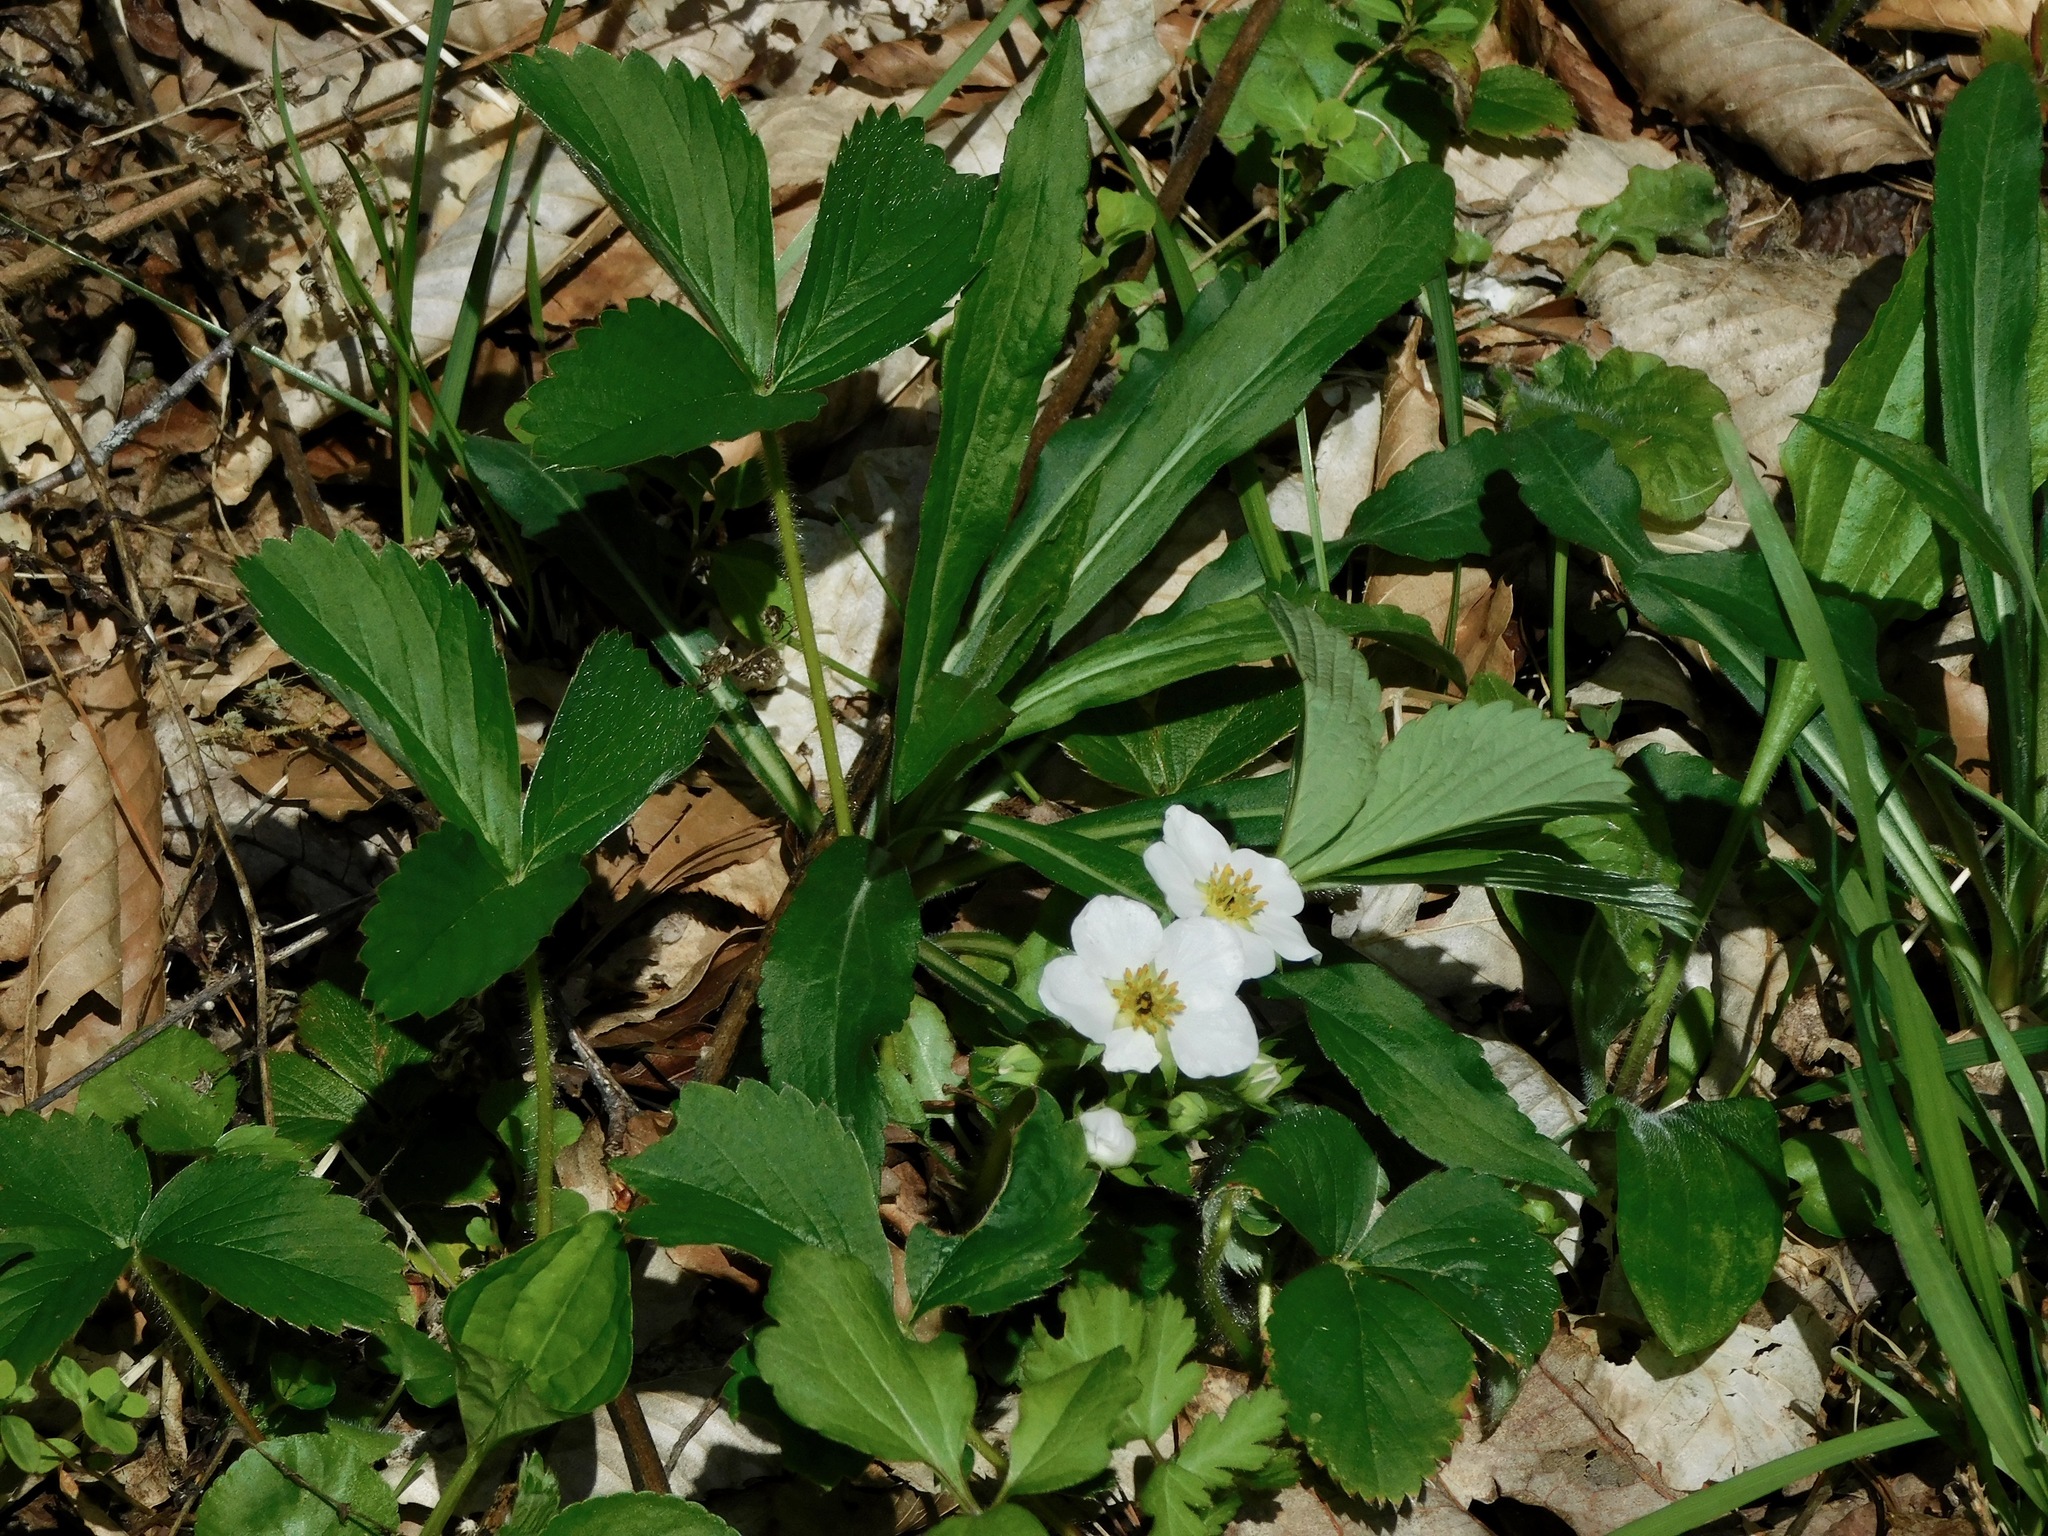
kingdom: Plantae
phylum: Tracheophyta
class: Magnoliopsida
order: Rosales
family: Rosaceae
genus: Fragaria
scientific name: Fragaria virginiana
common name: Thickleaved wild strawberry
